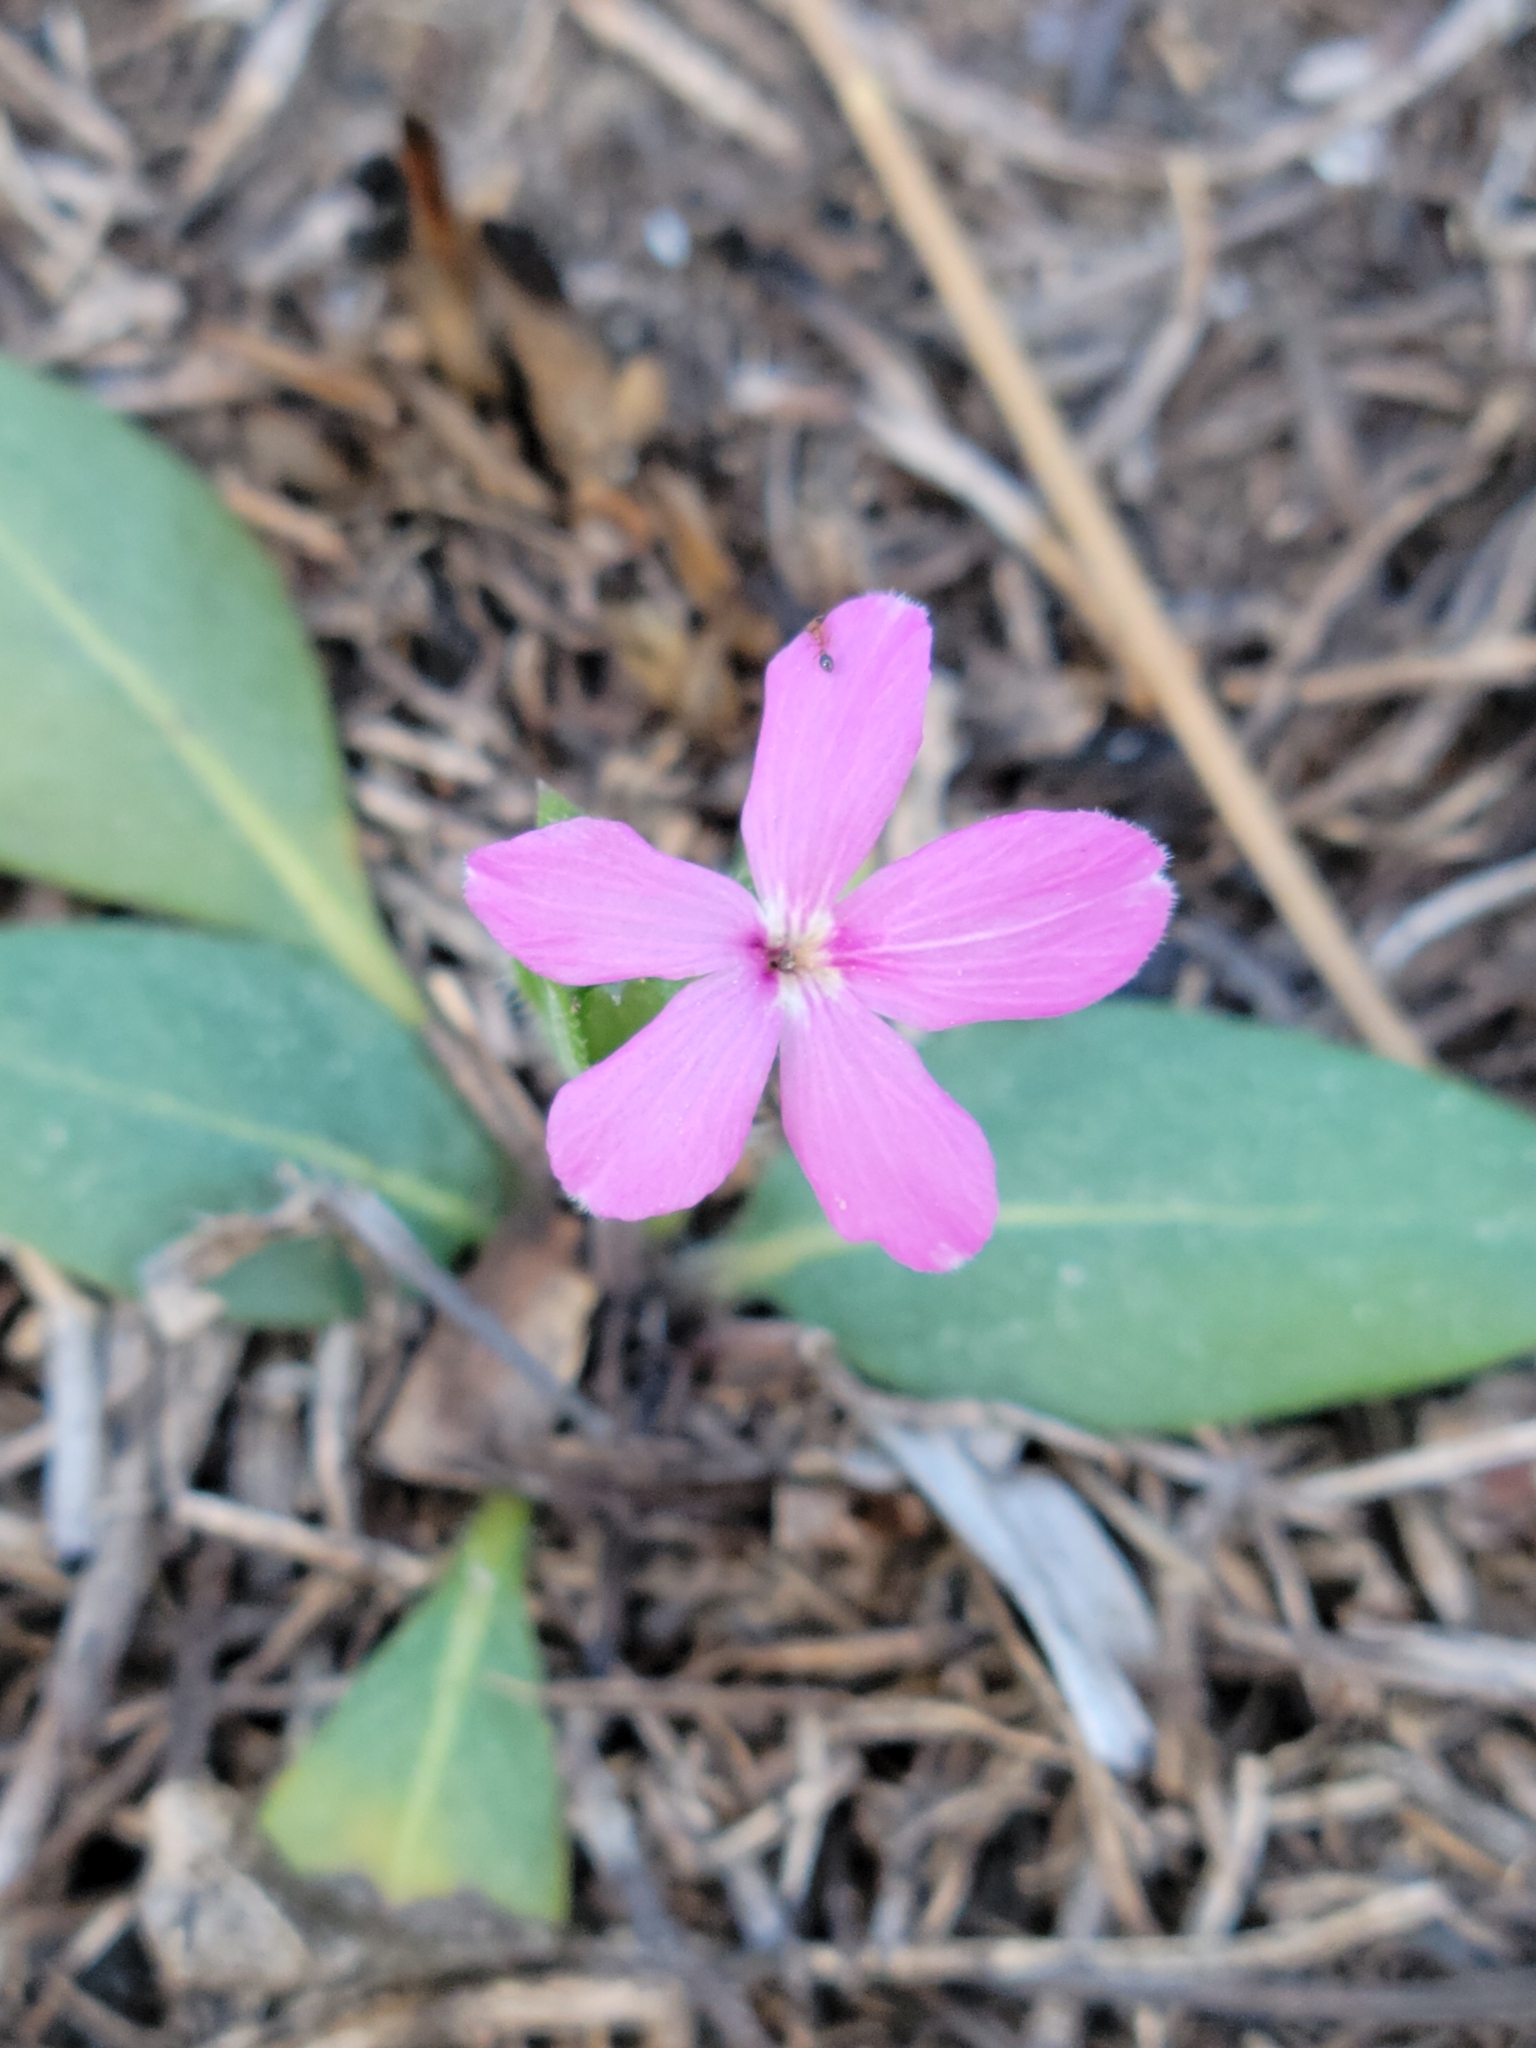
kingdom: Plantae
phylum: Tracheophyta
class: Magnoliopsida
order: Lamiales
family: Acanthaceae
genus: Stenandrium
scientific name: Stenandrium dulce
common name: Pinklet
